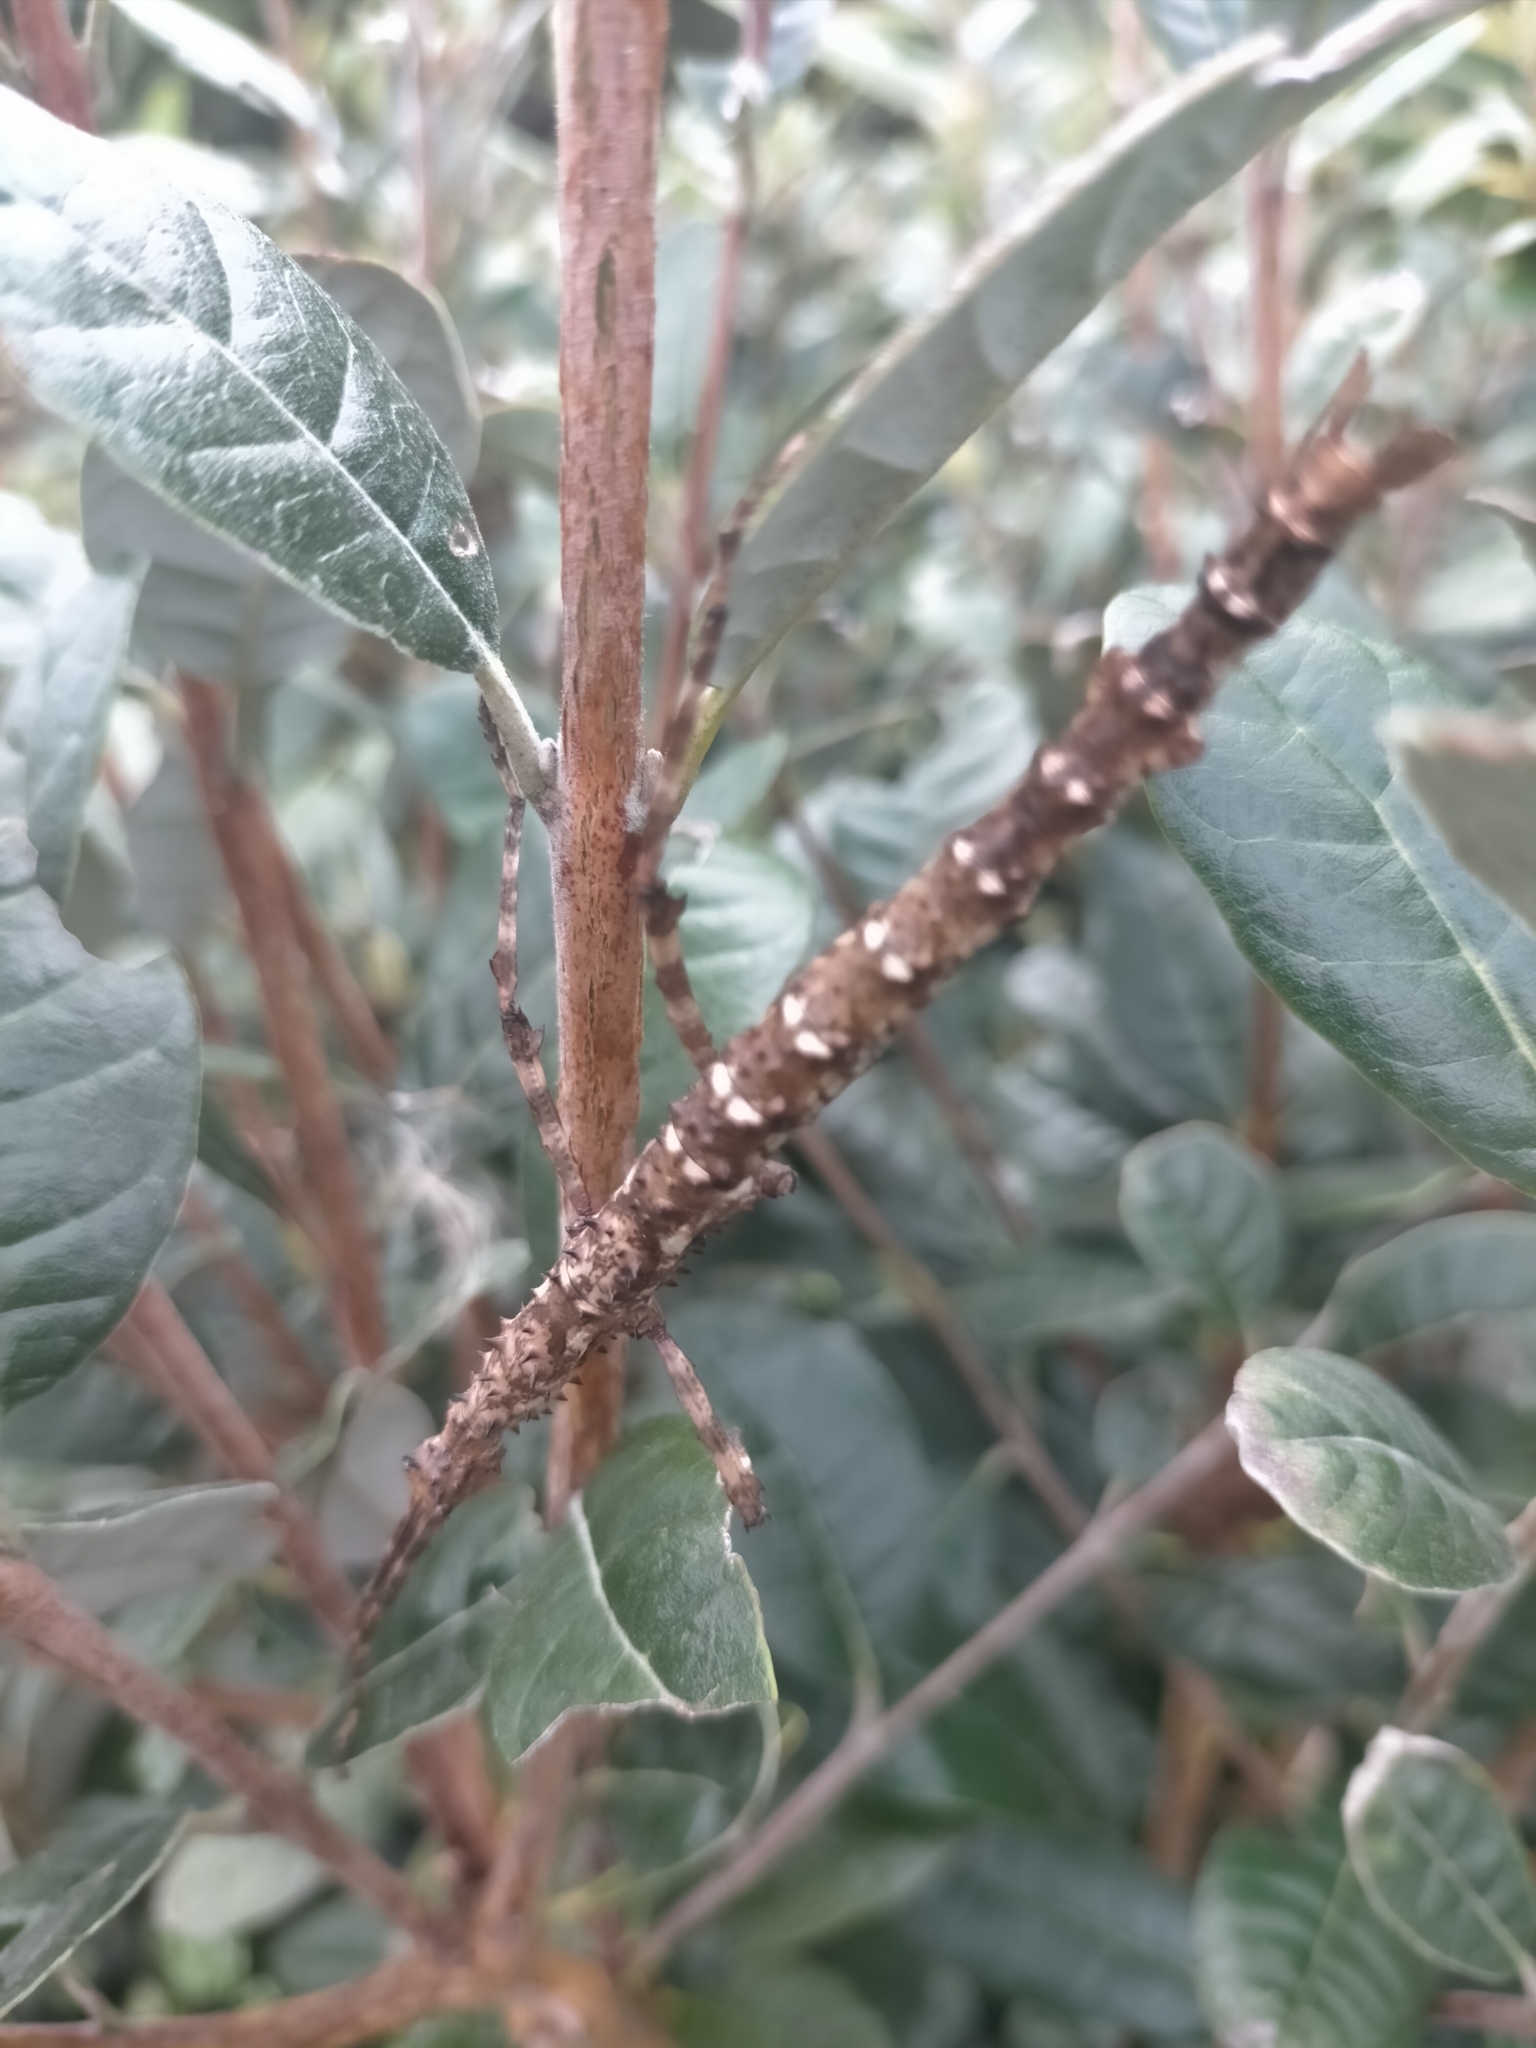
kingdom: Animalia
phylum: Arthropoda
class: Insecta
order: Phasmida
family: Phasmatidae
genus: Acanthoxyla
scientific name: Acanthoxyla prasina
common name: Black-spined stick insect
